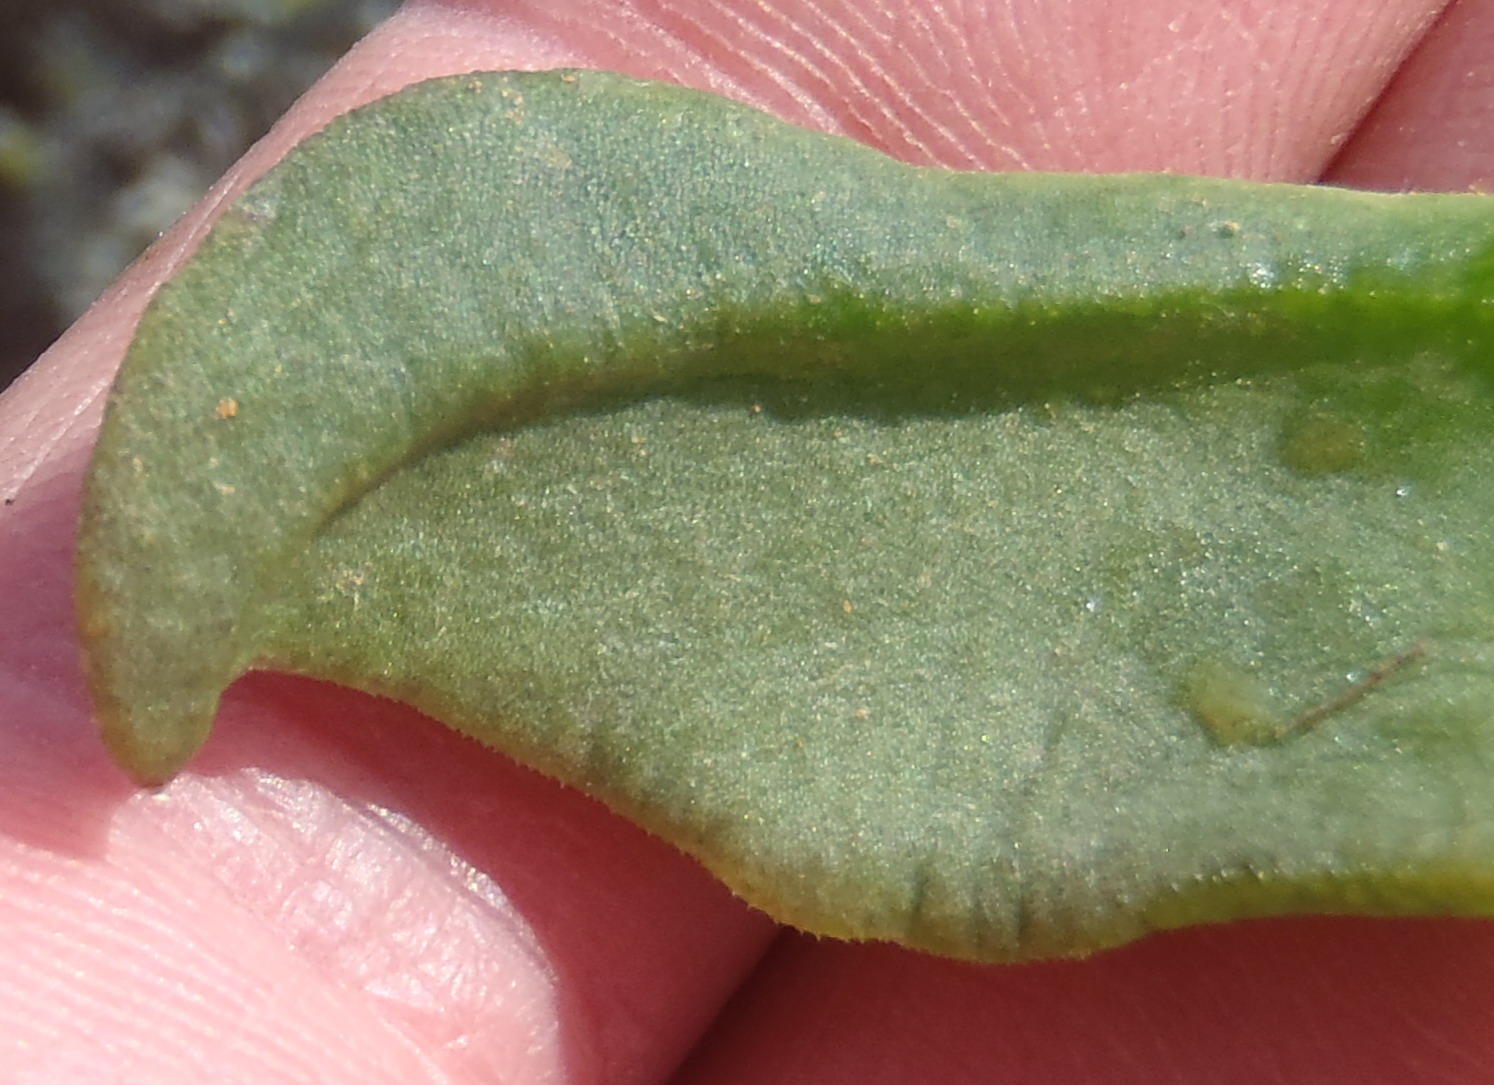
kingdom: Plantae
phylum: Tracheophyta
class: Magnoliopsida
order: Caryophyllales
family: Aizoaceae
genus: Glottiphyllum
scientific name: Glottiphyllum depressum
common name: Fig-marigold
